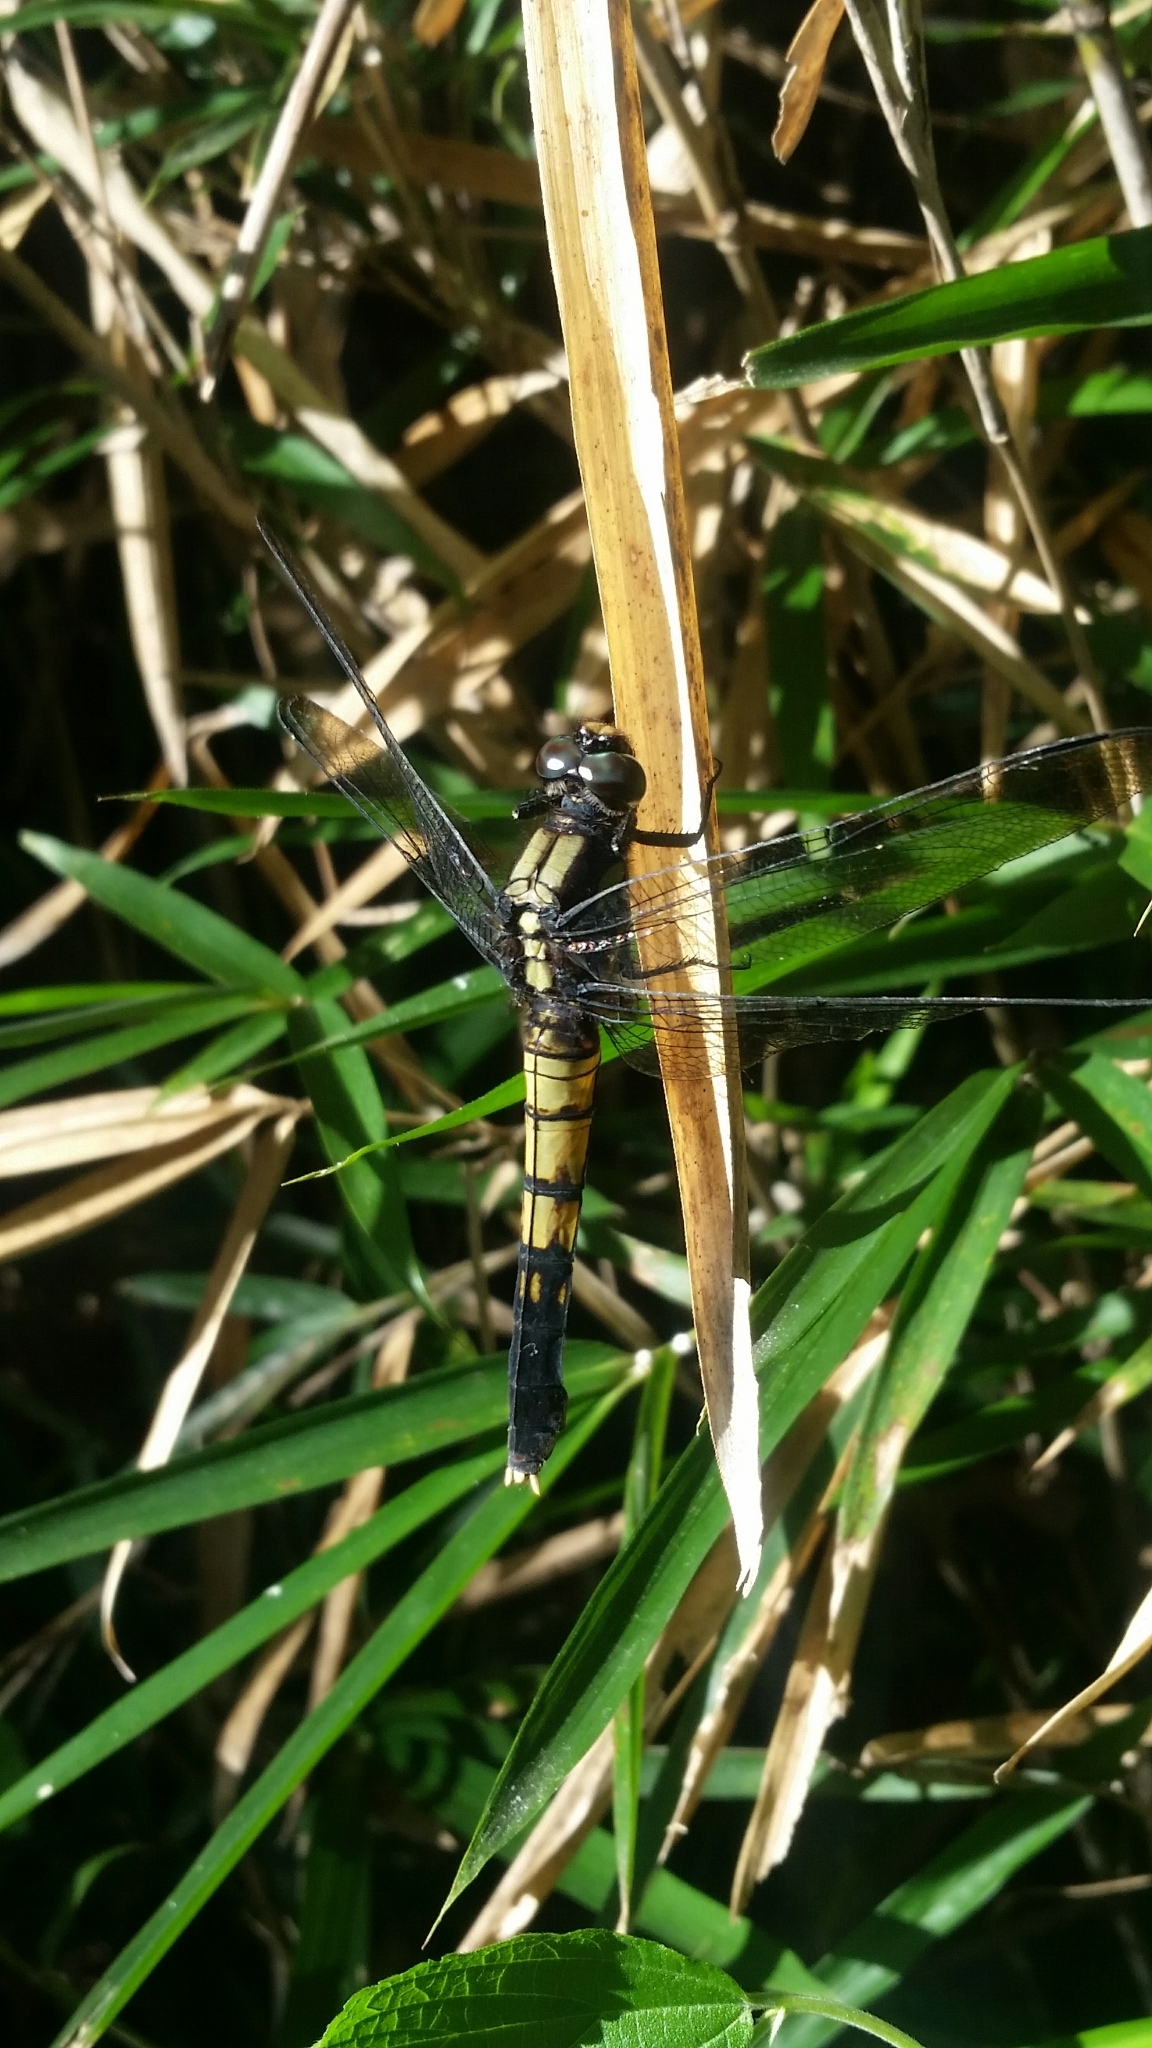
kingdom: Animalia
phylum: Arthropoda
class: Insecta
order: Odonata
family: Libellulidae
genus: Orthetrum
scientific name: Orthetrum melania
